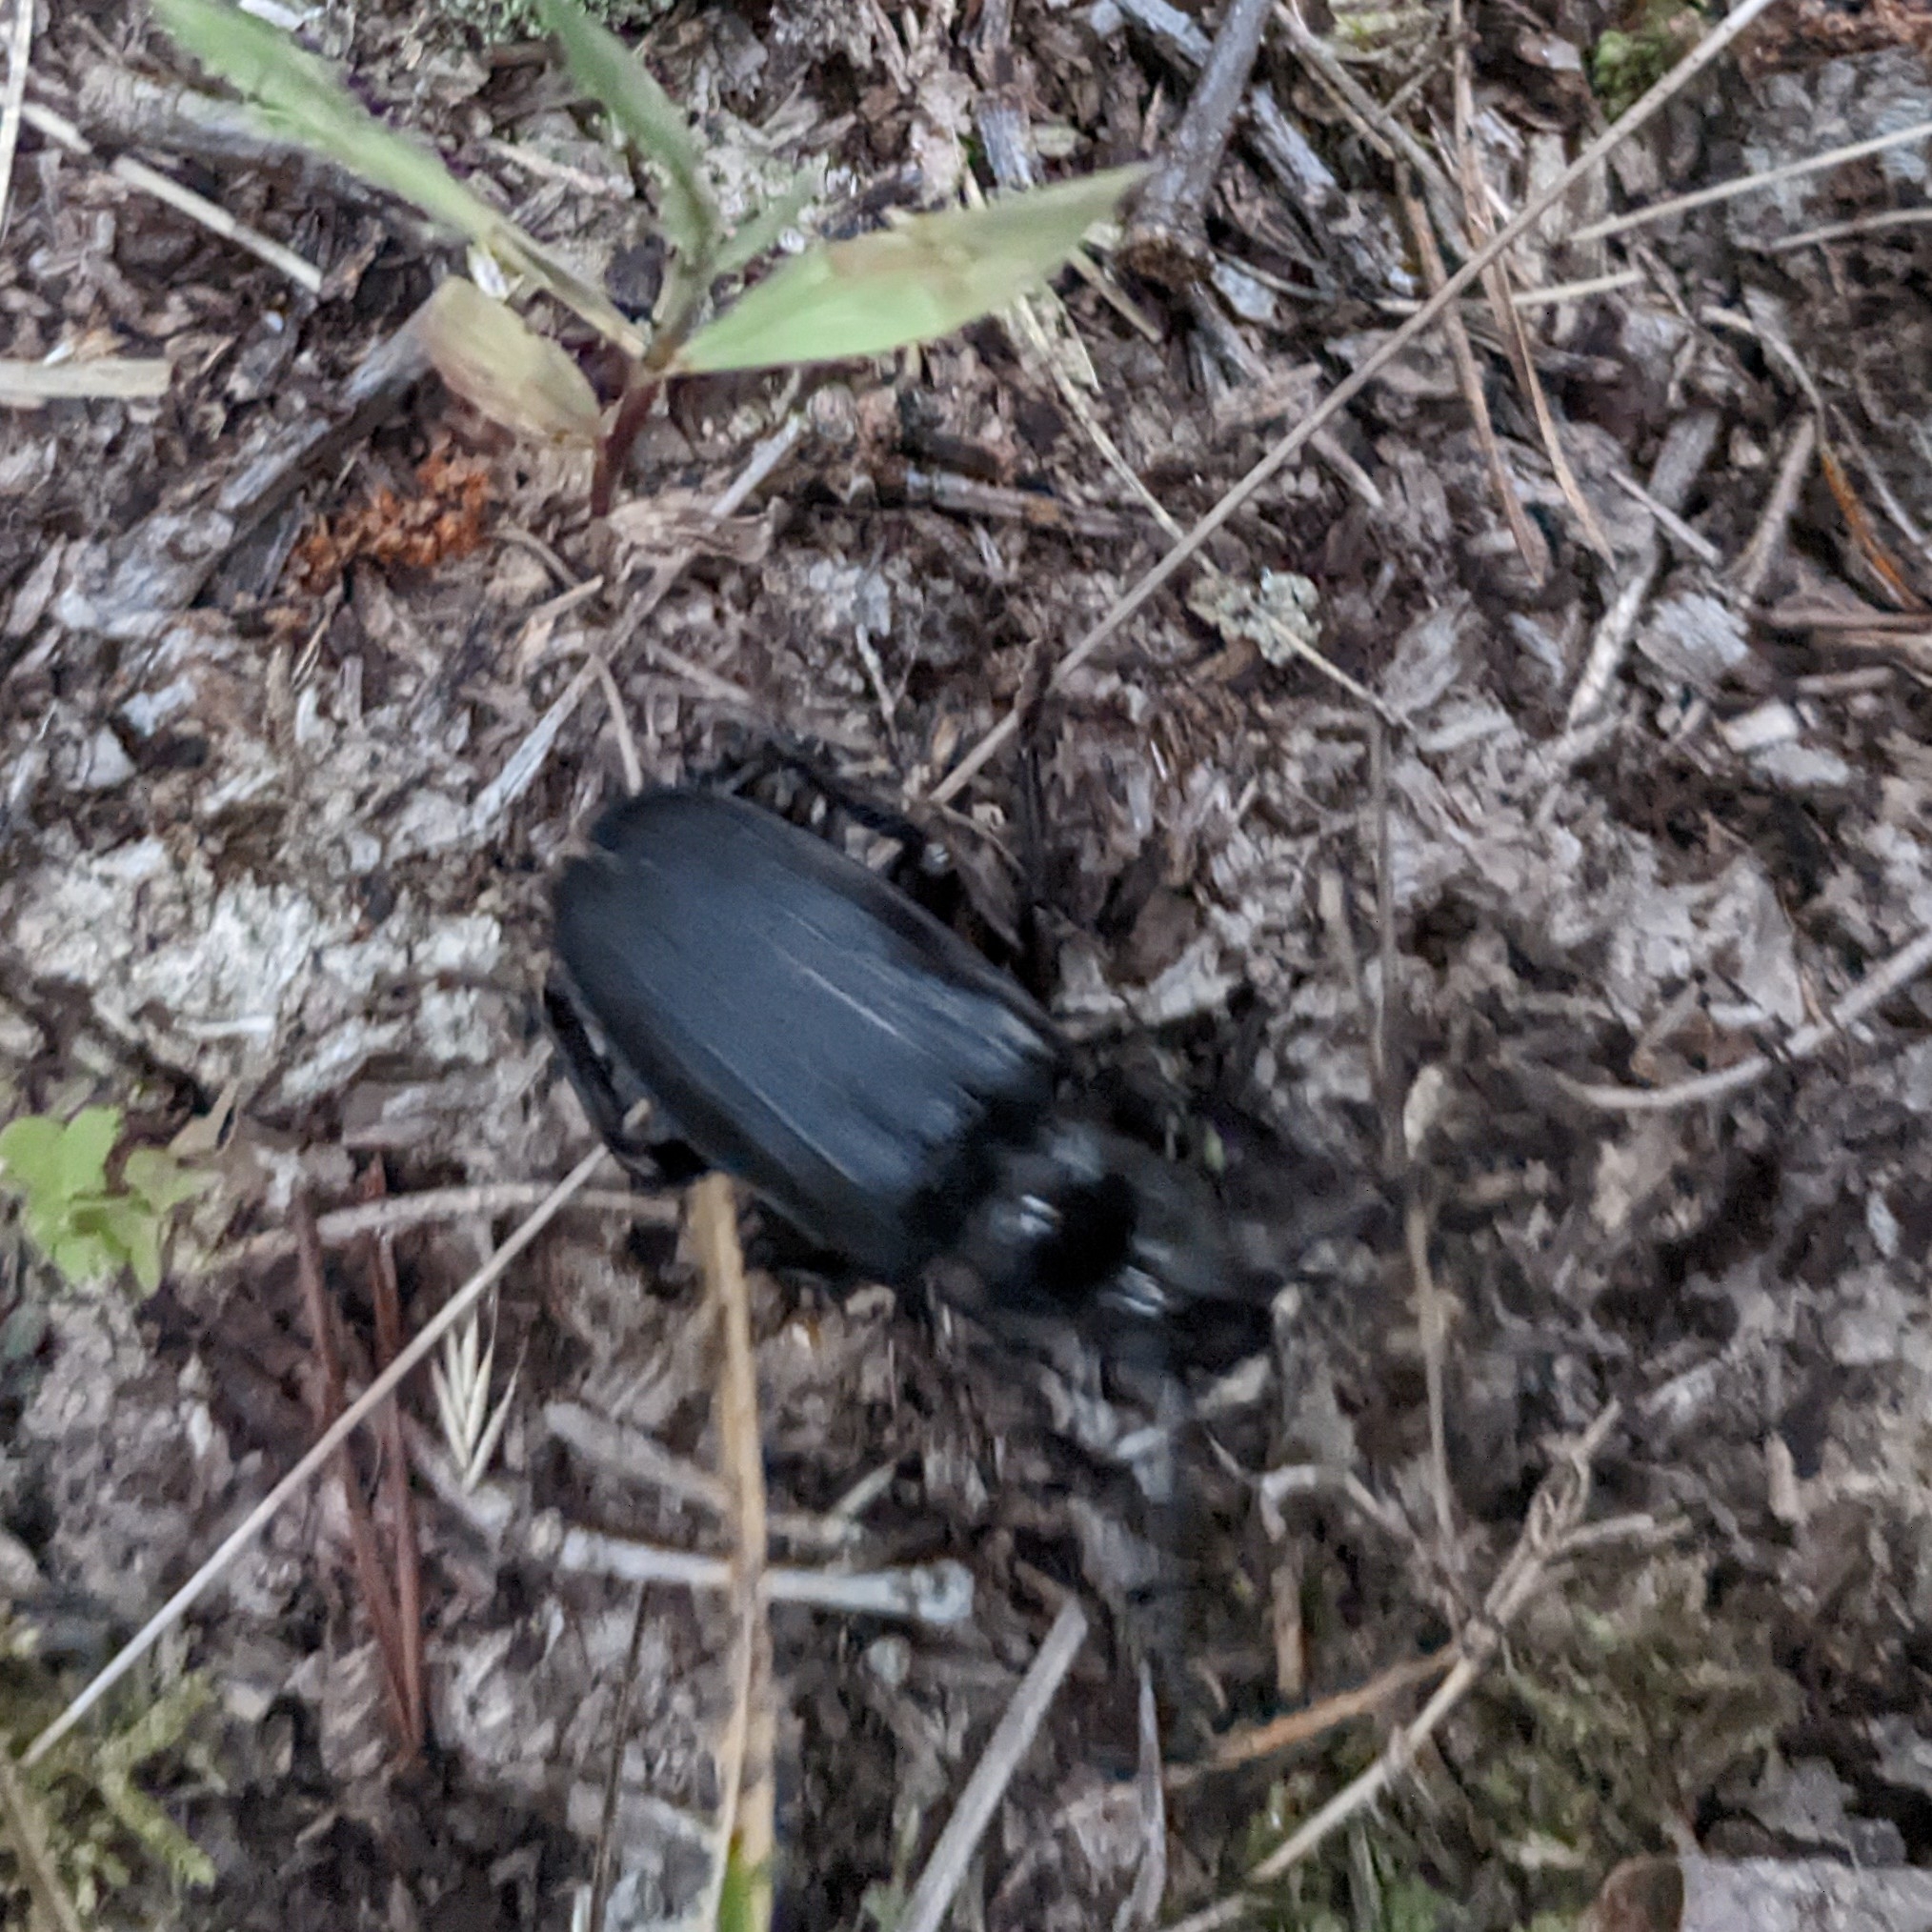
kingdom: Animalia
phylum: Arthropoda
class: Insecta
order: Coleoptera
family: Cerambycidae
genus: Prionus
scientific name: Prionus laticollis
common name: Broad necked prionus
